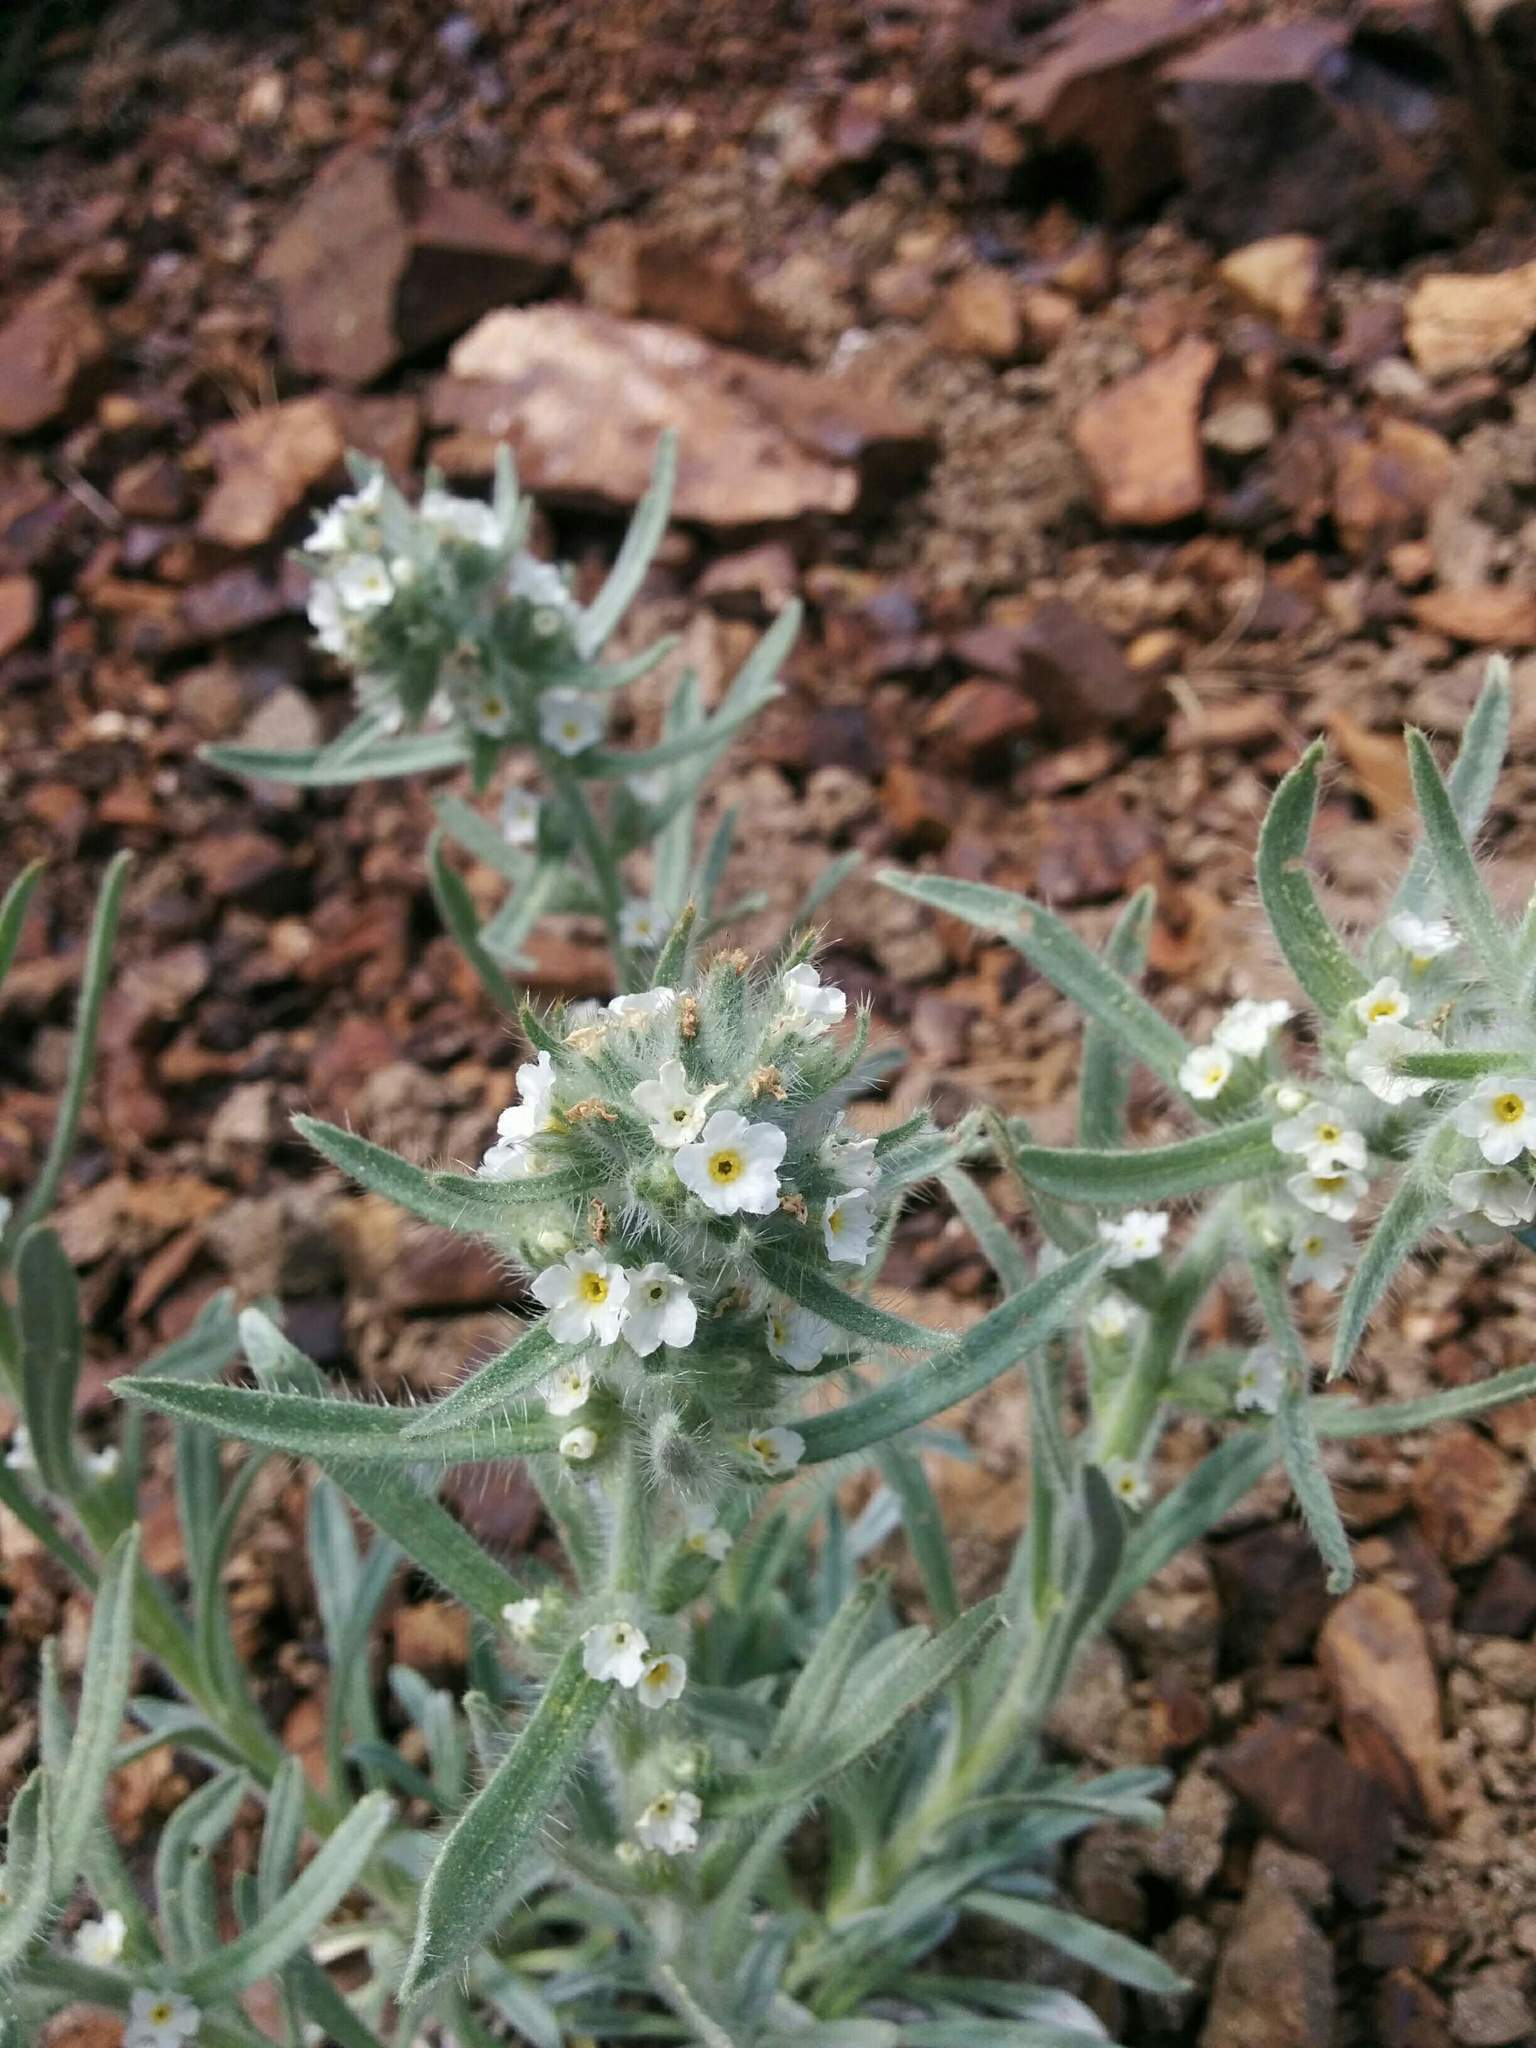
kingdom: Plantae
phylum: Tracheophyta
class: Magnoliopsida
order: Boraginales
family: Boraginaceae
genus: Oreocarya
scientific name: Oreocarya thompsonii
